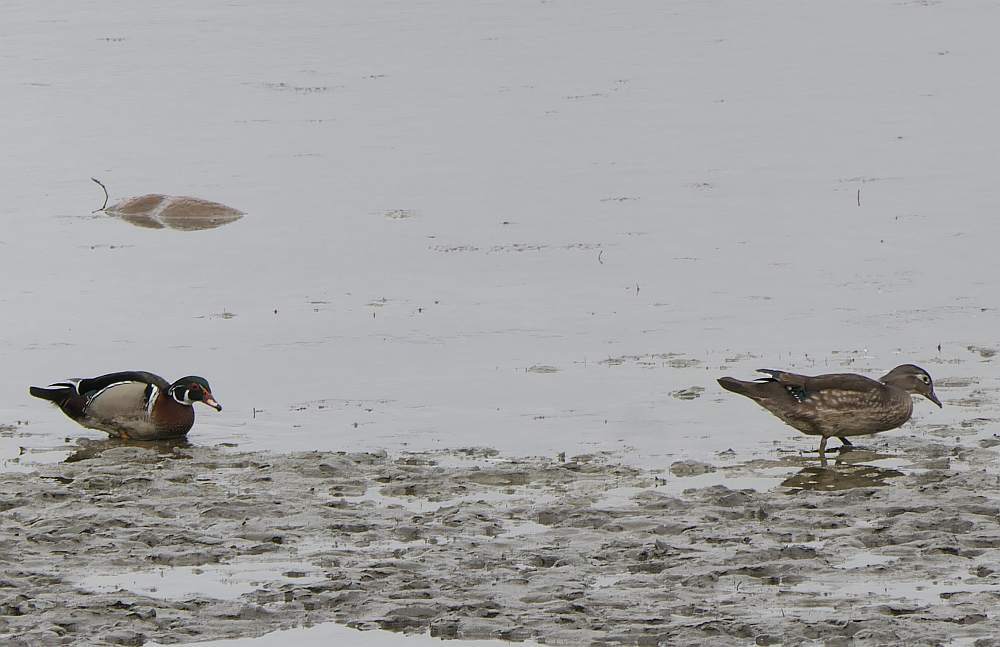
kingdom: Animalia
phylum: Chordata
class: Aves
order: Anseriformes
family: Anatidae
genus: Aix
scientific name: Aix sponsa
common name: Wood duck
